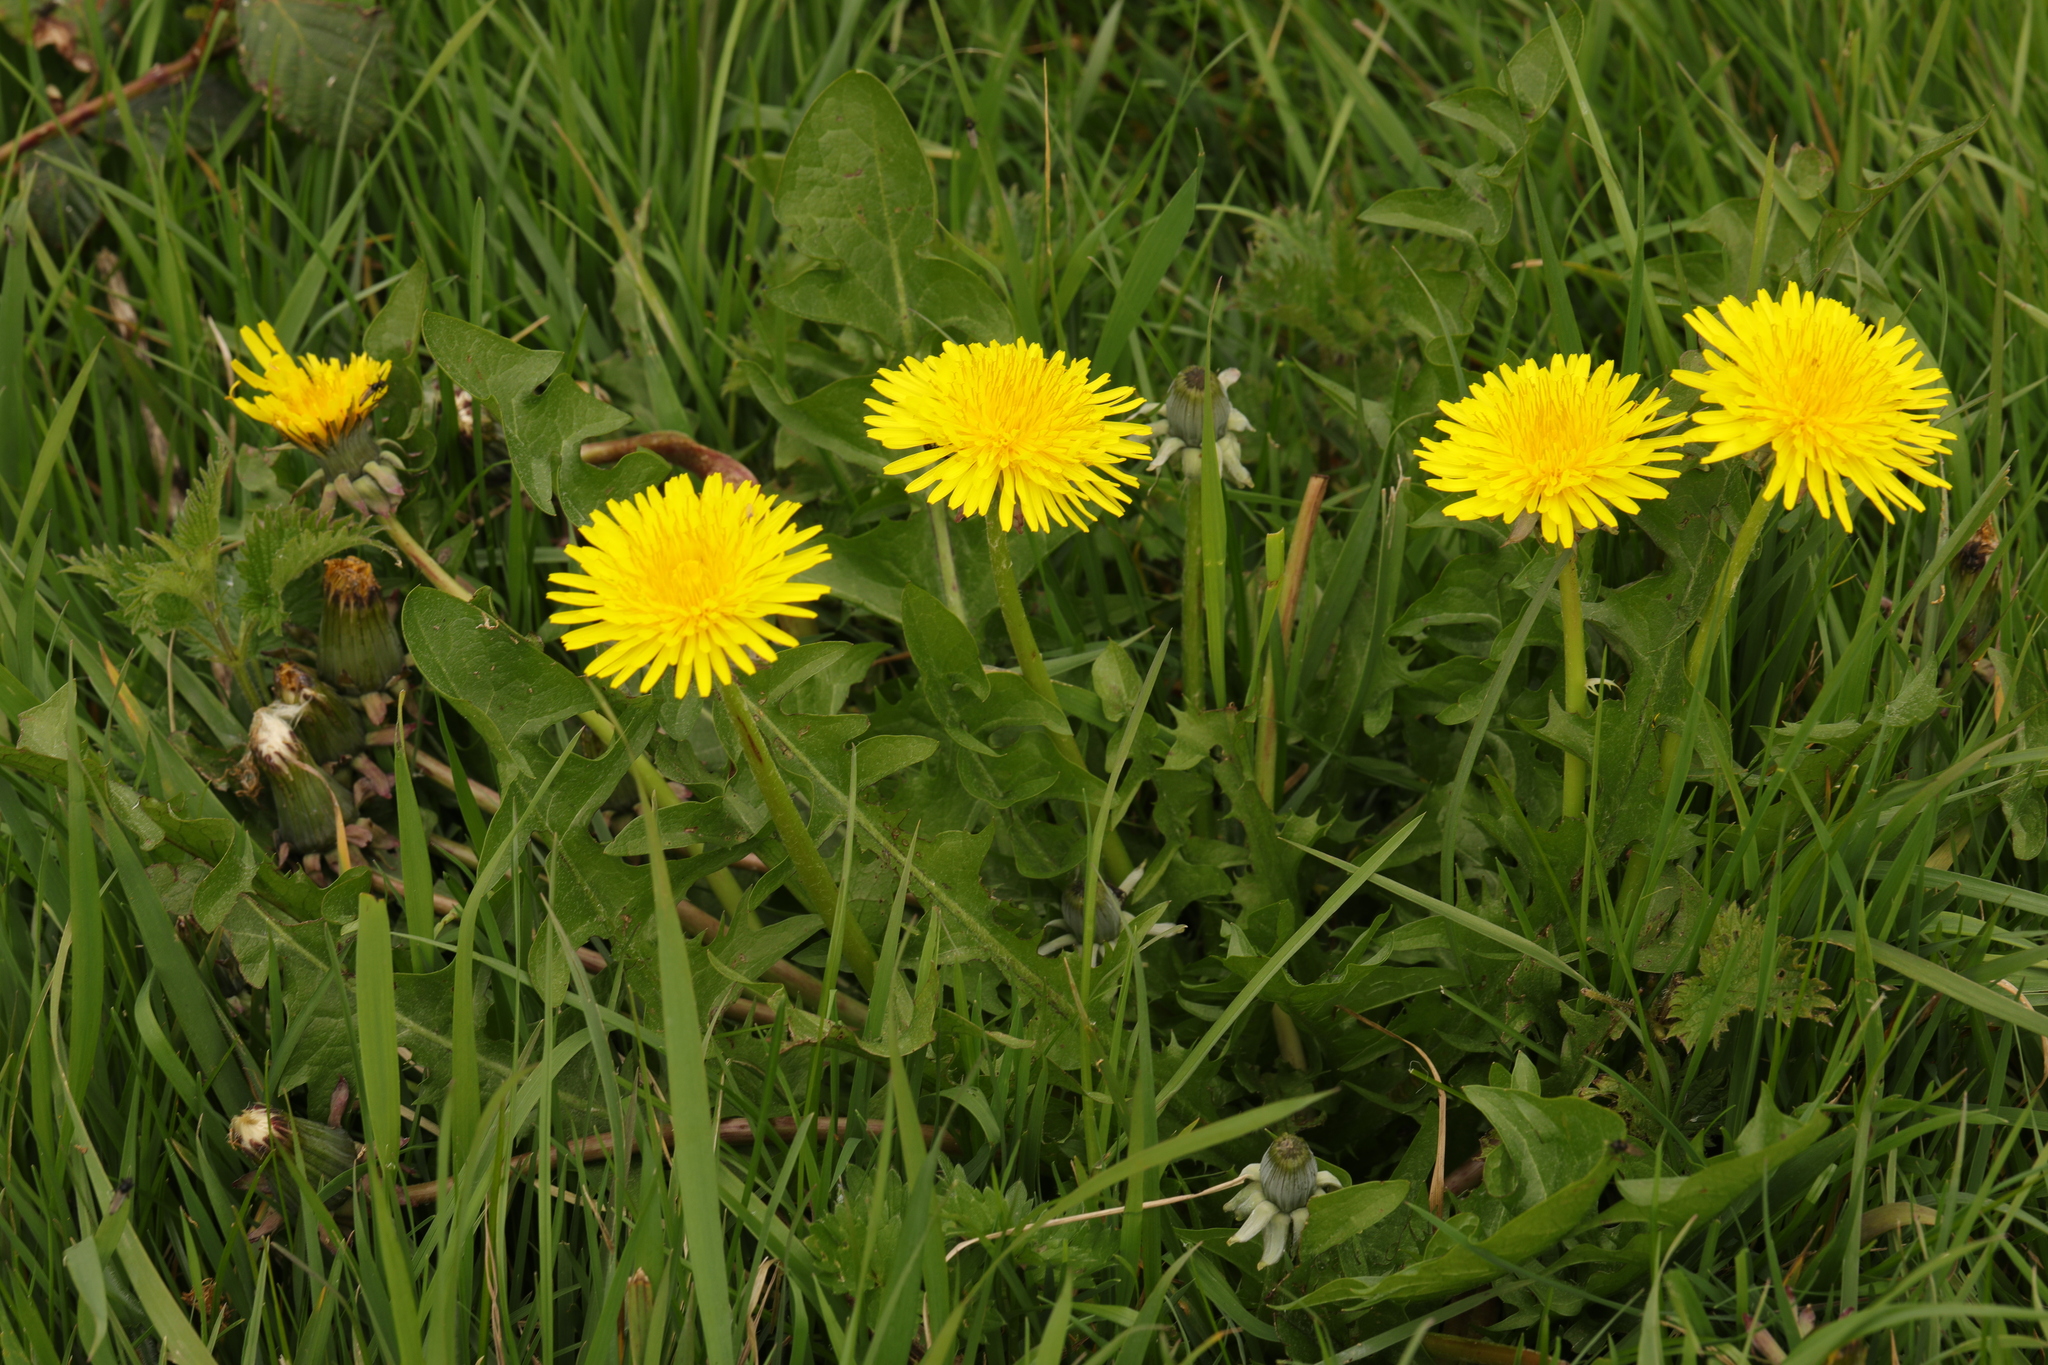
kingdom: Plantae
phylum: Tracheophyta
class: Magnoliopsida
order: Asterales
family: Asteraceae
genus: Taraxacum
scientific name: Taraxacum officinale
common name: Common dandelion
